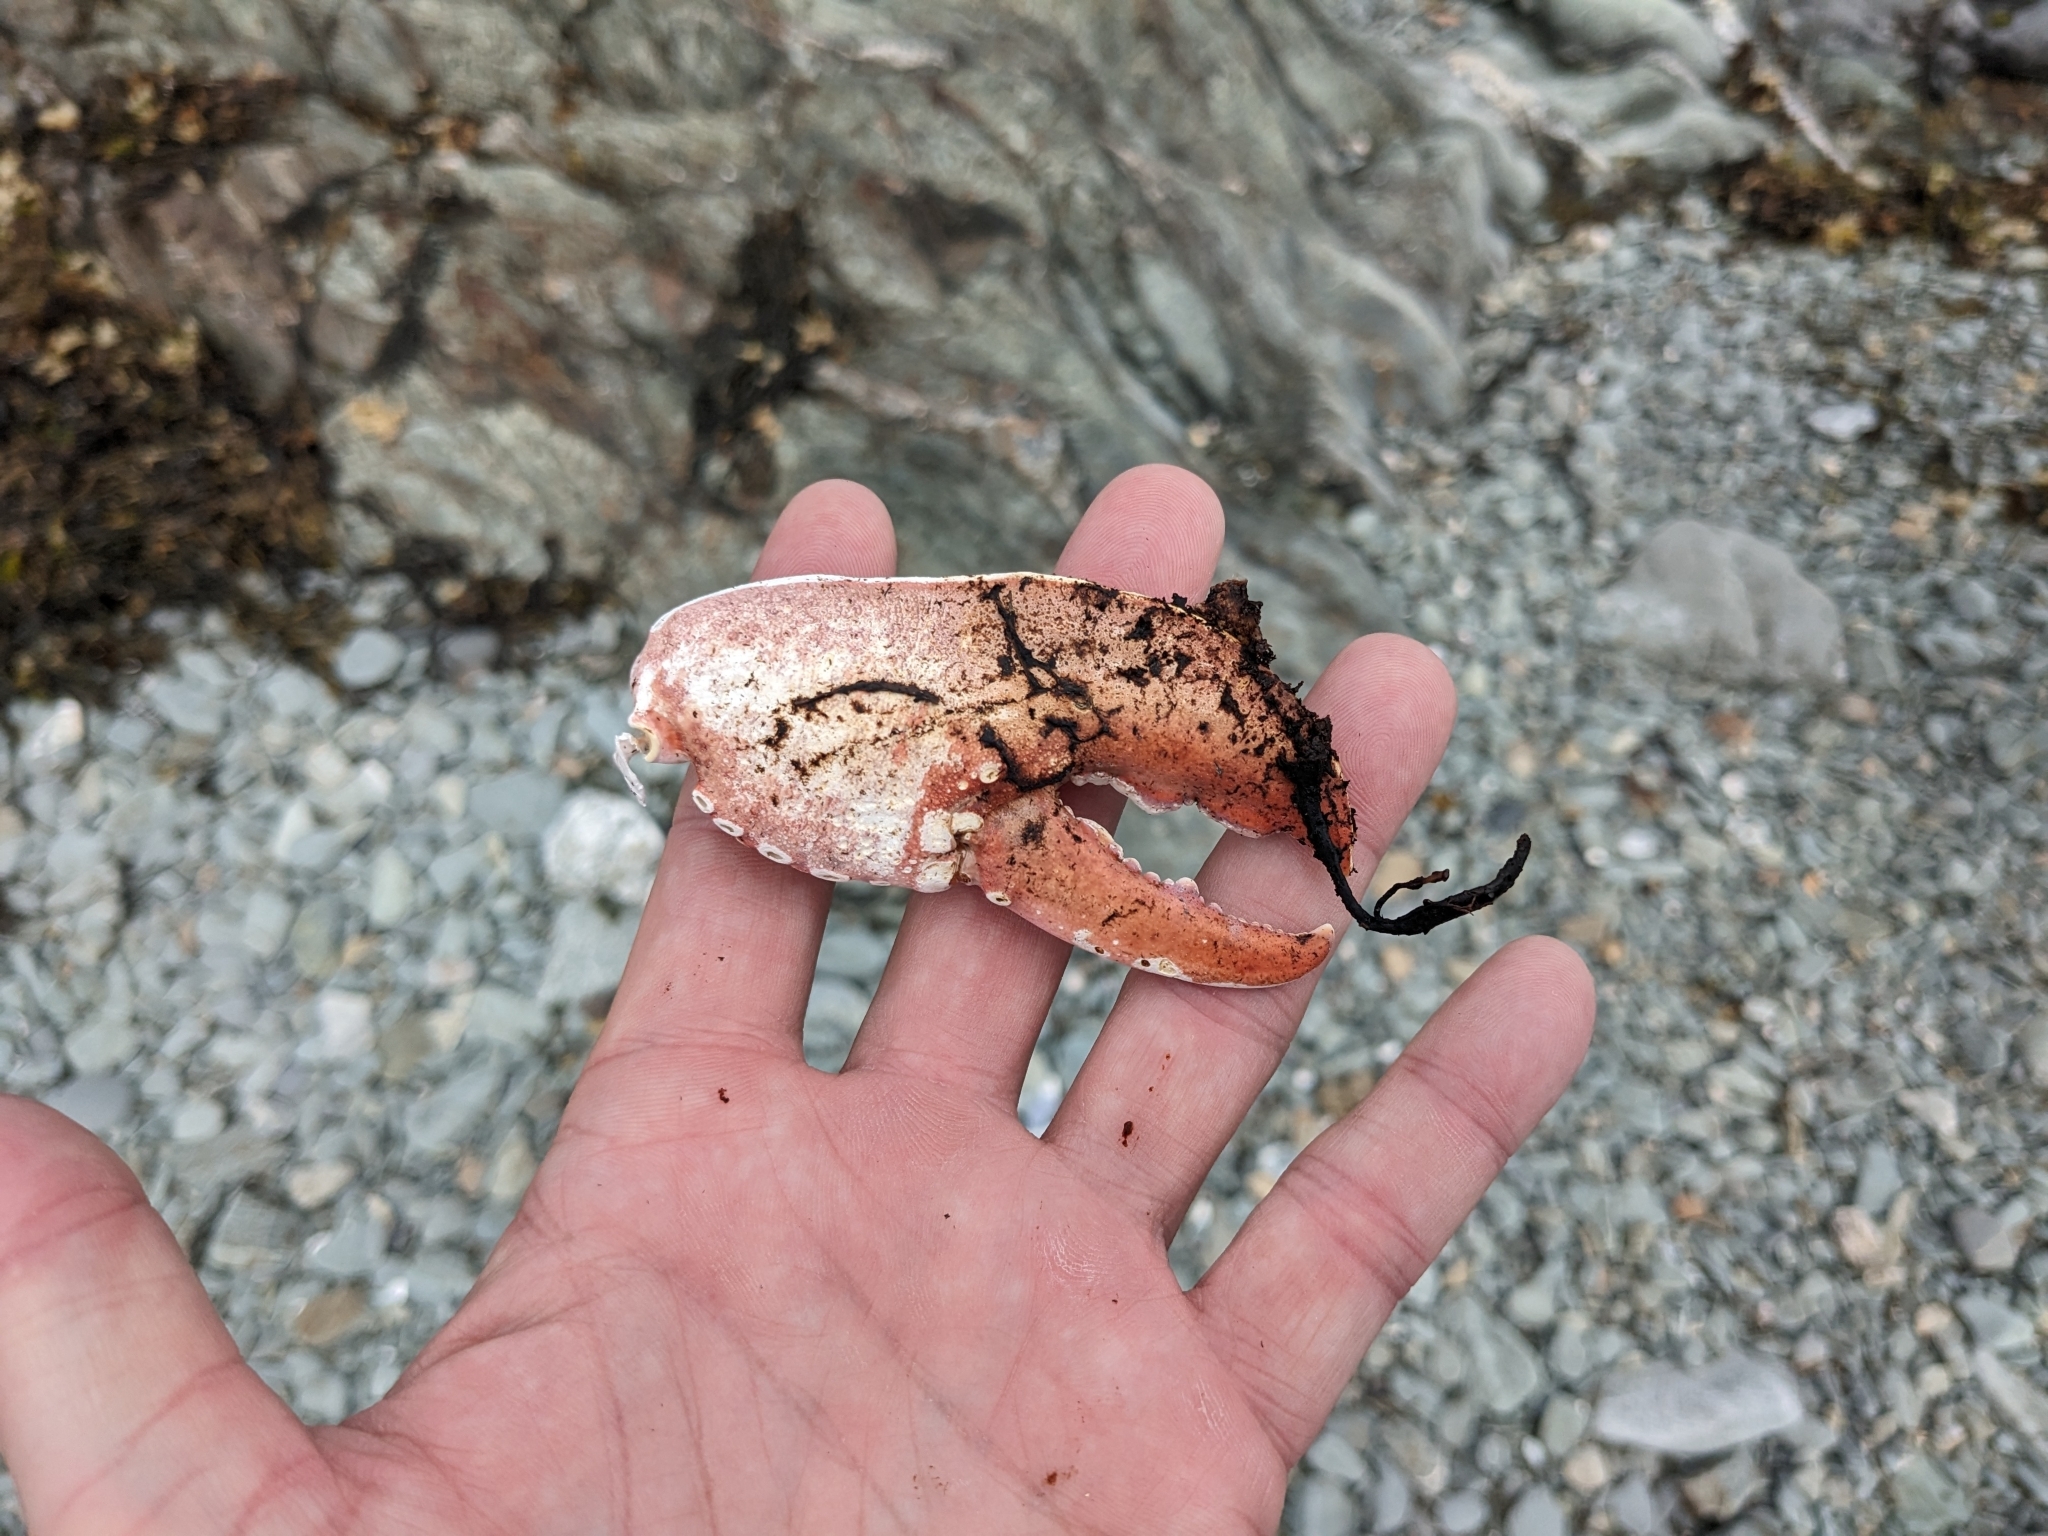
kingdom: Animalia
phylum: Arthropoda
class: Malacostraca
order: Decapoda
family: Nephropidae
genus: Homarus
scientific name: Homarus americanus
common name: American lobster
